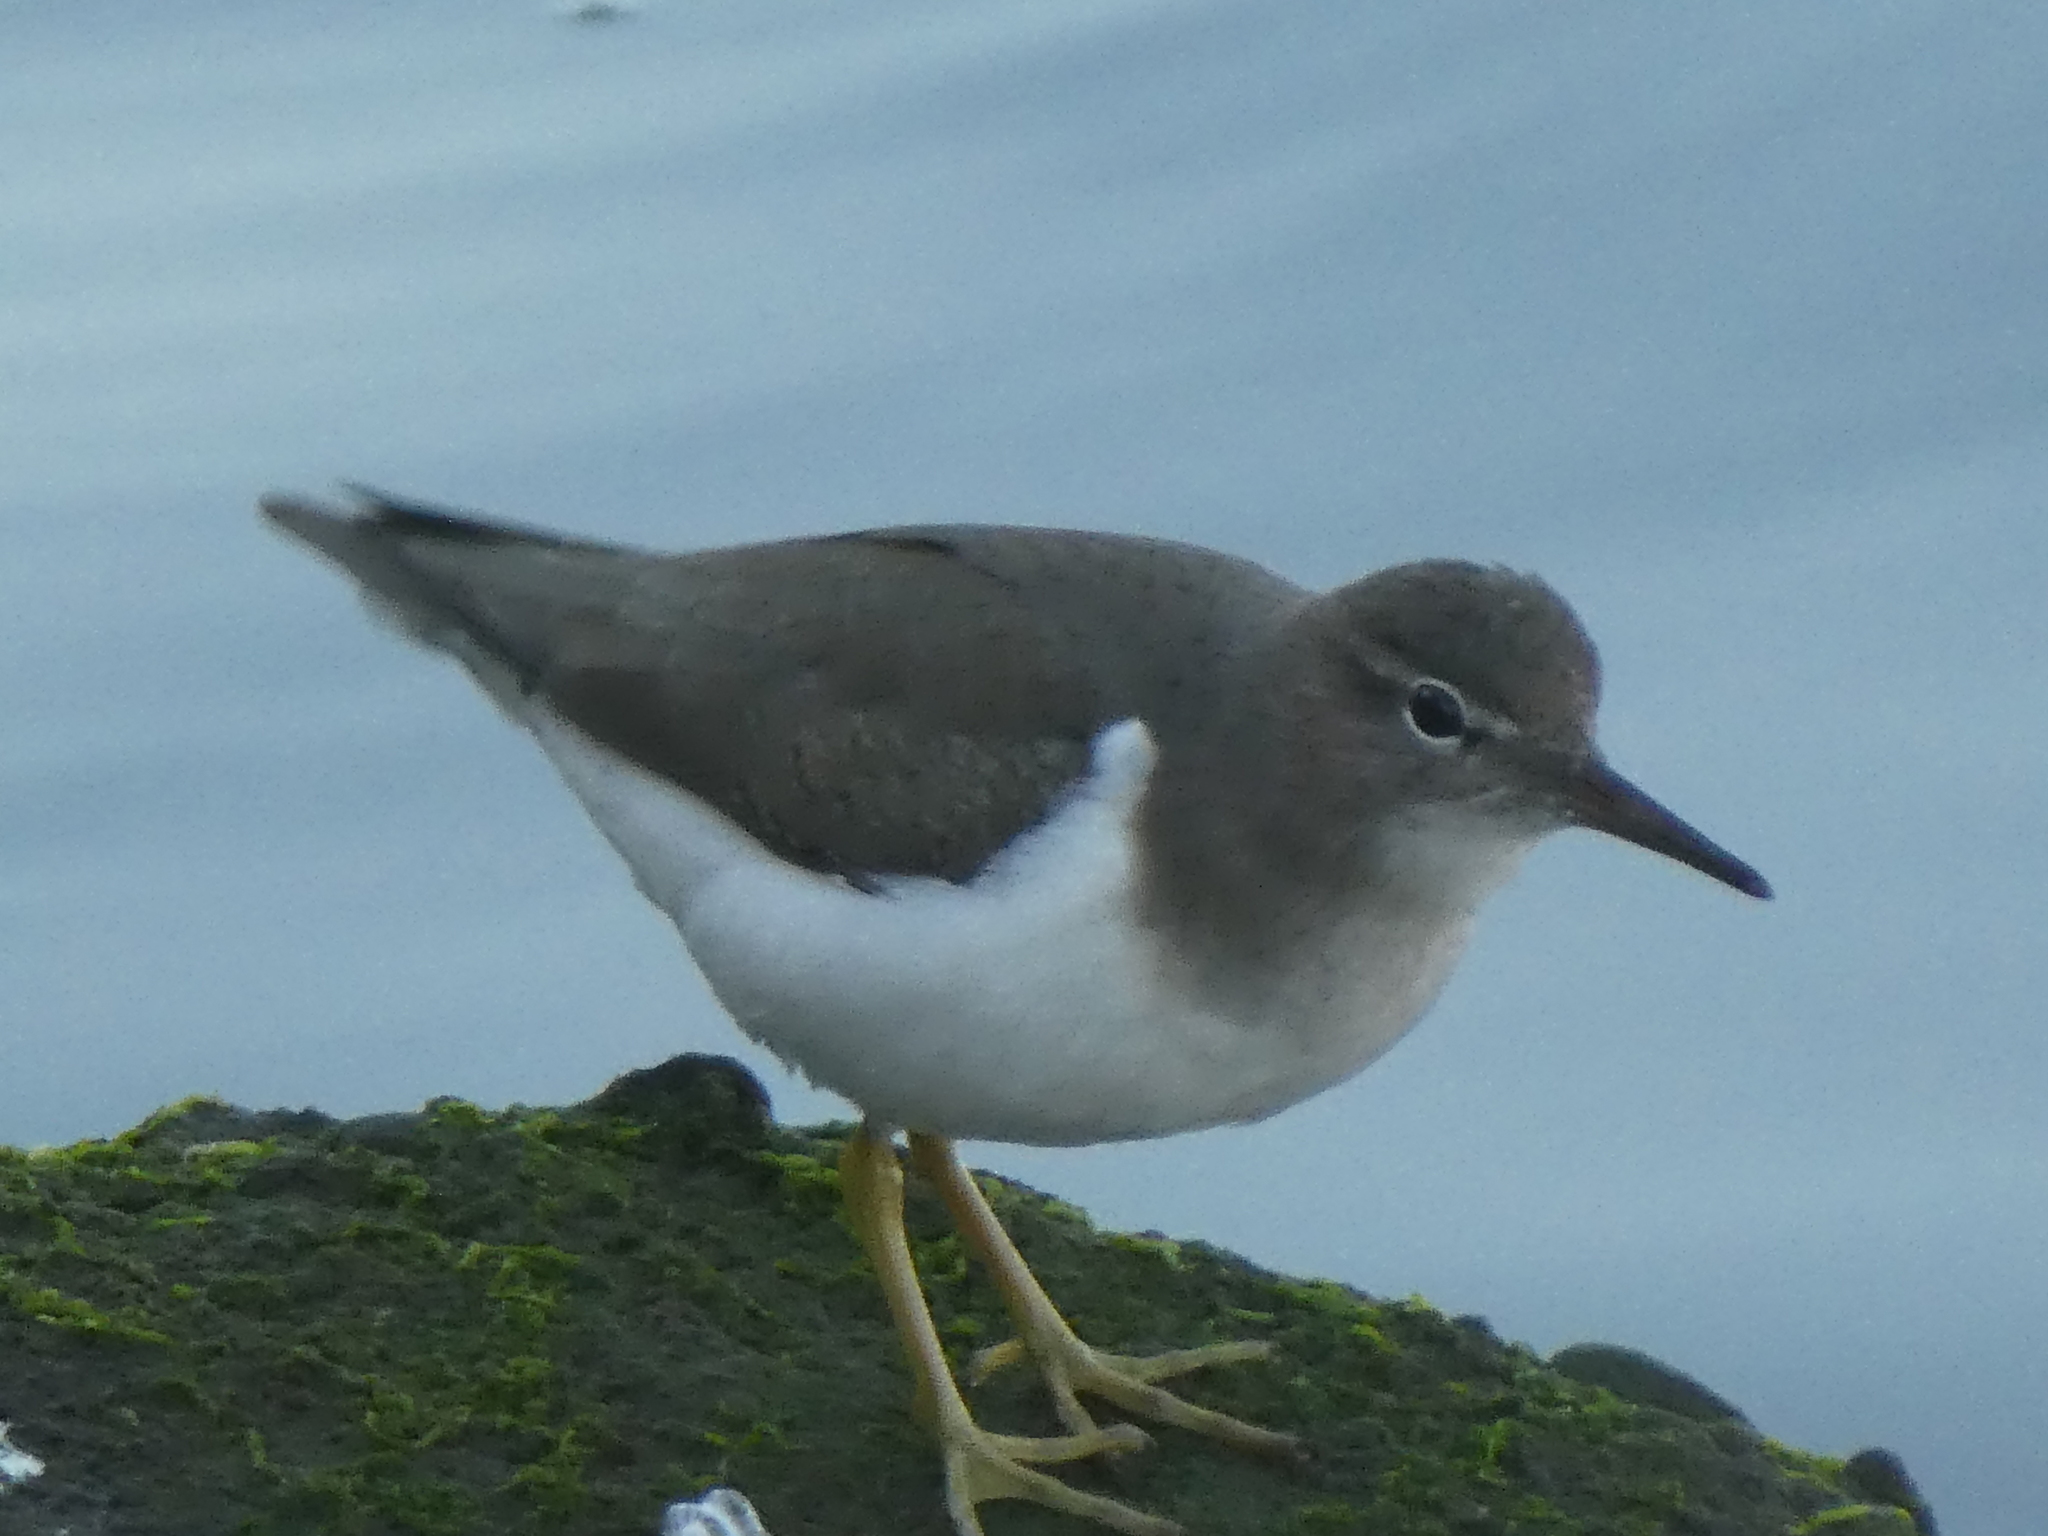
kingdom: Animalia
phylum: Chordata
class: Aves
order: Charadriiformes
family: Scolopacidae
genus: Actitis
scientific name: Actitis macularius
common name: Spotted sandpiper
